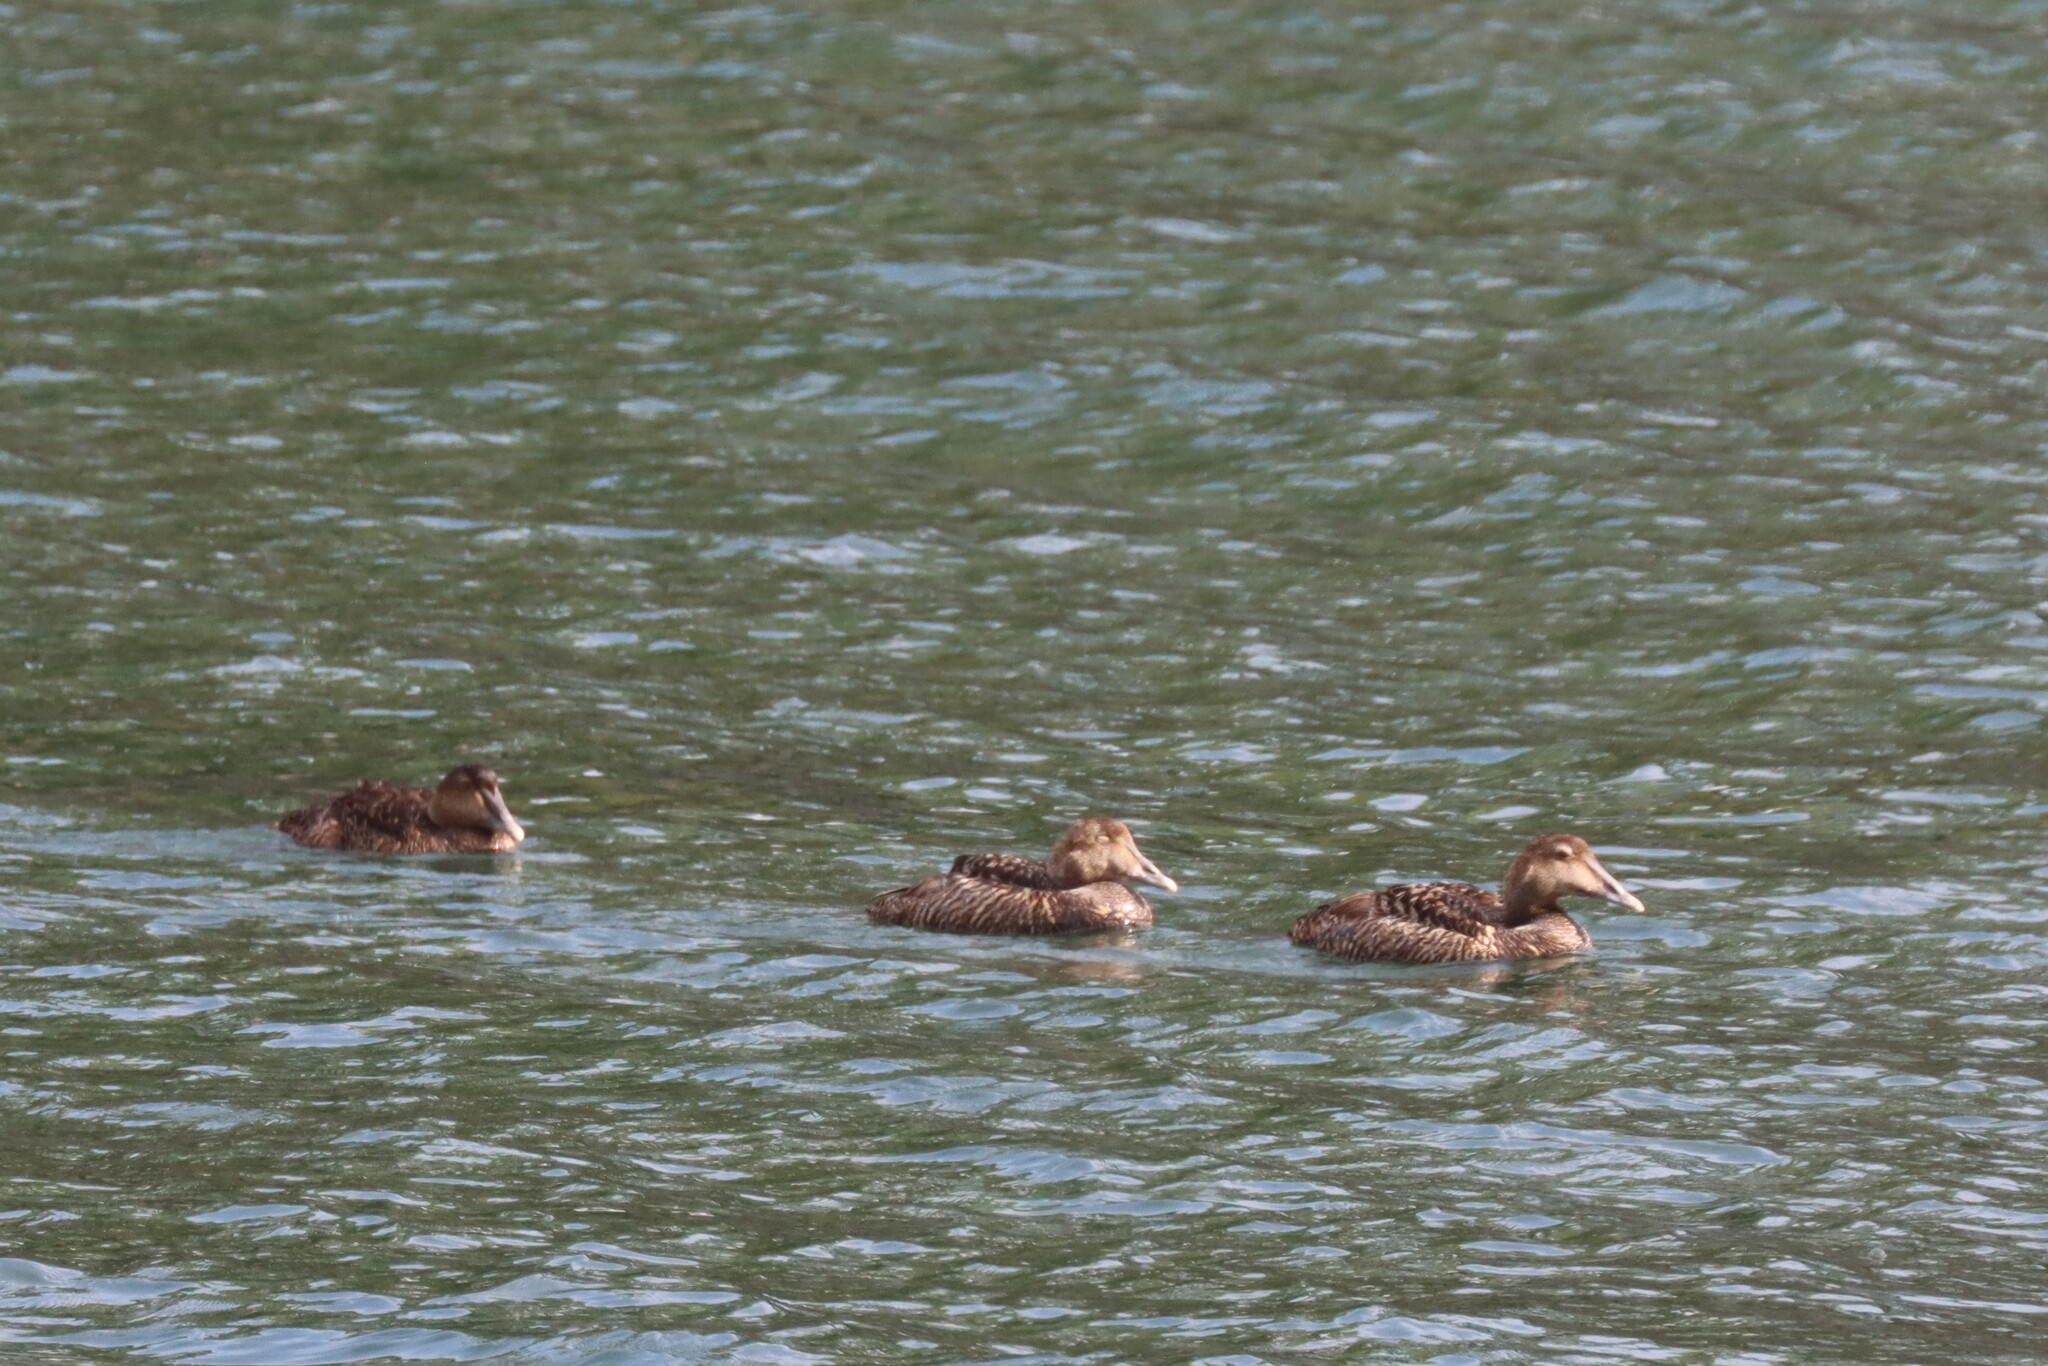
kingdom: Animalia
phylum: Chordata
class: Aves
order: Anseriformes
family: Anatidae
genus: Somateria
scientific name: Somateria mollissima
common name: Common eider
